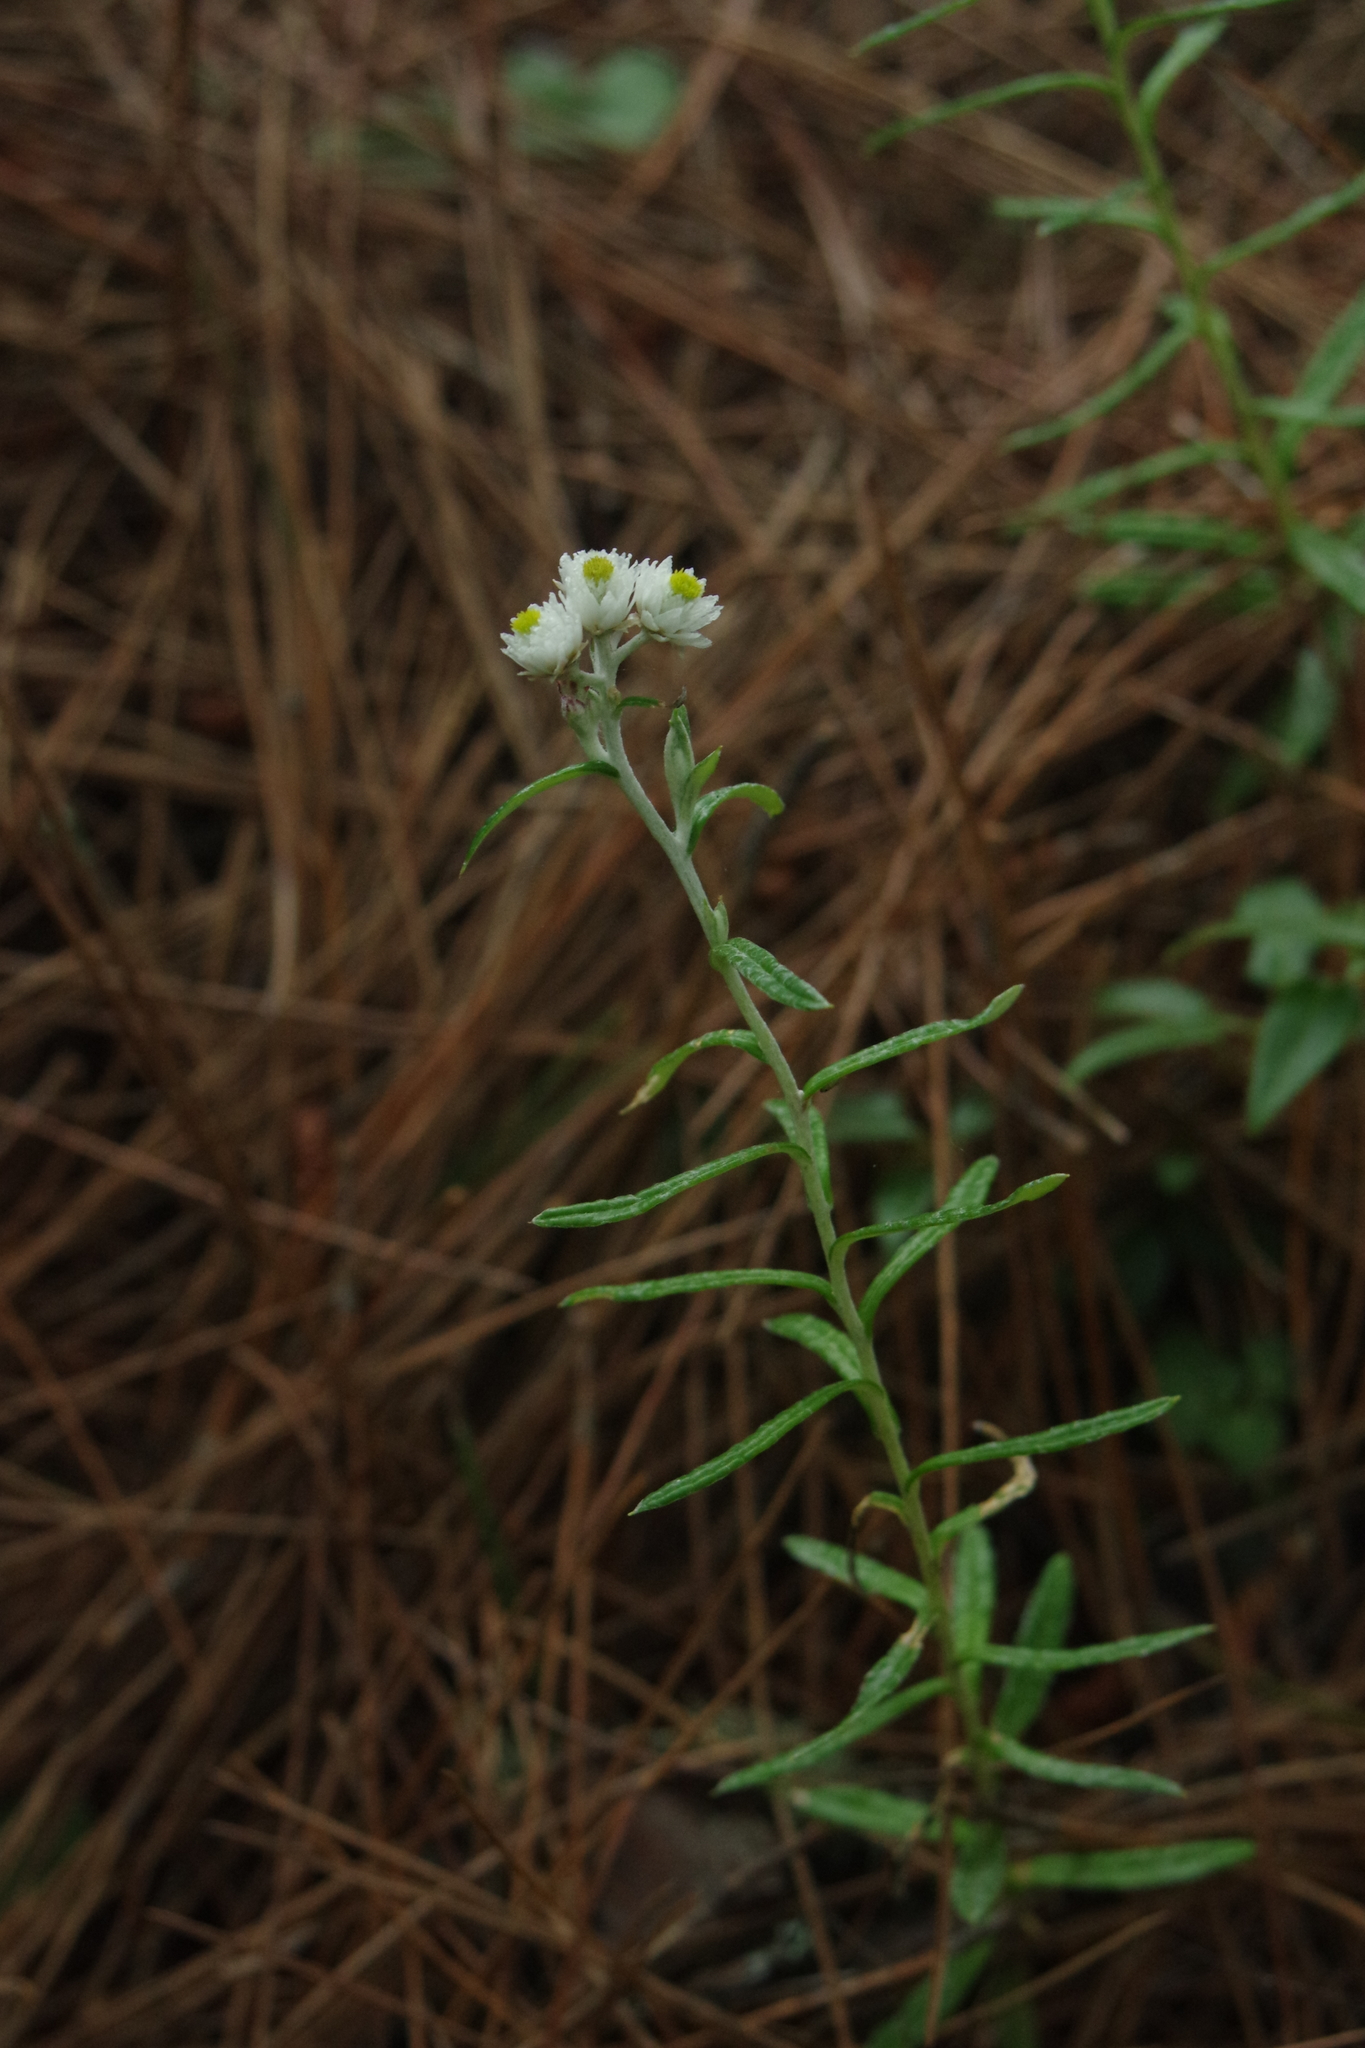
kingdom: Plantae
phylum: Tracheophyta
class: Magnoliopsida
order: Asterales
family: Asteraceae
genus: Anaphalis
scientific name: Anaphalis morrisonicola
